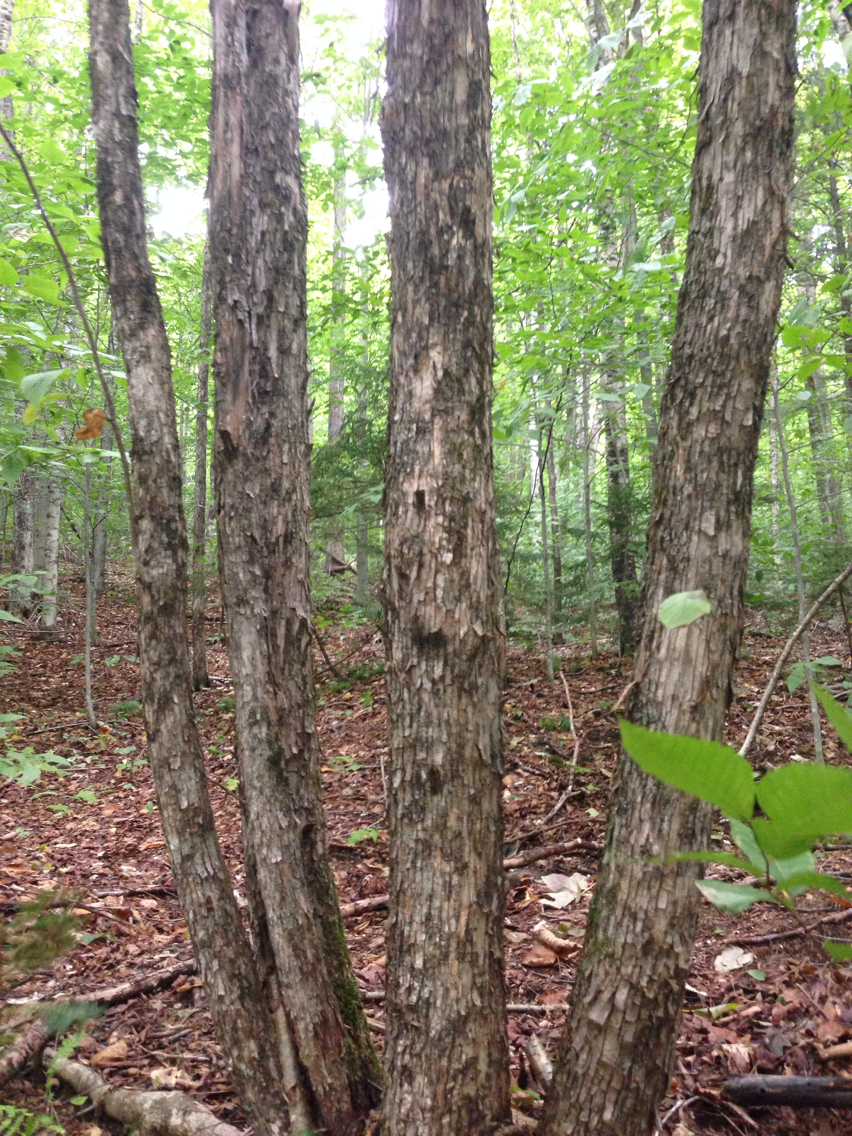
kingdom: Plantae
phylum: Tracheophyta
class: Magnoliopsida
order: Fagales
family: Betulaceae
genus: Ostrya
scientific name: Ostrya virginiana
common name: Ironwood
